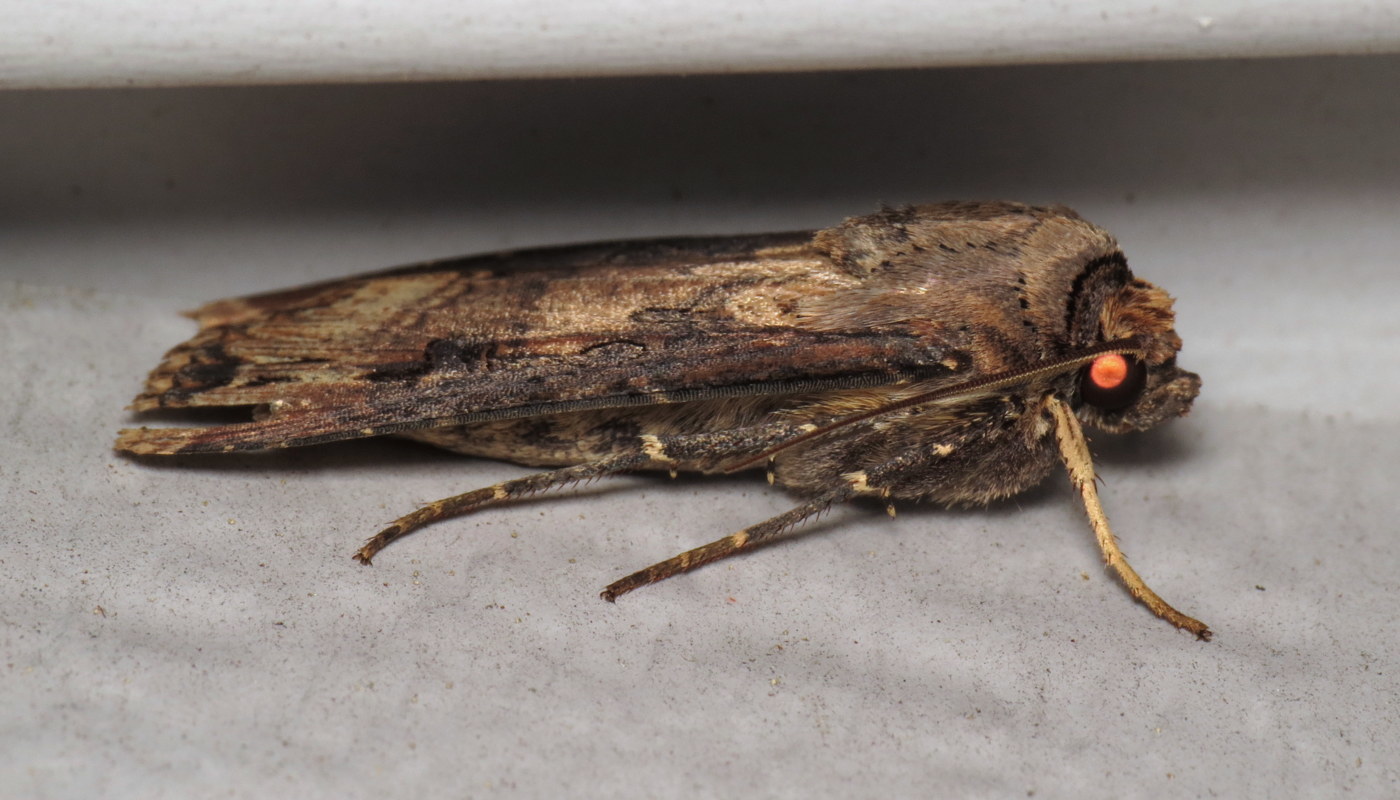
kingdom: Animalia
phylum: Arthropoda
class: Insecta
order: Lepidoptera
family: Noctuidae
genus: Agrotis
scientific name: Agrotis ipsilon
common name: Dark sword-grass
